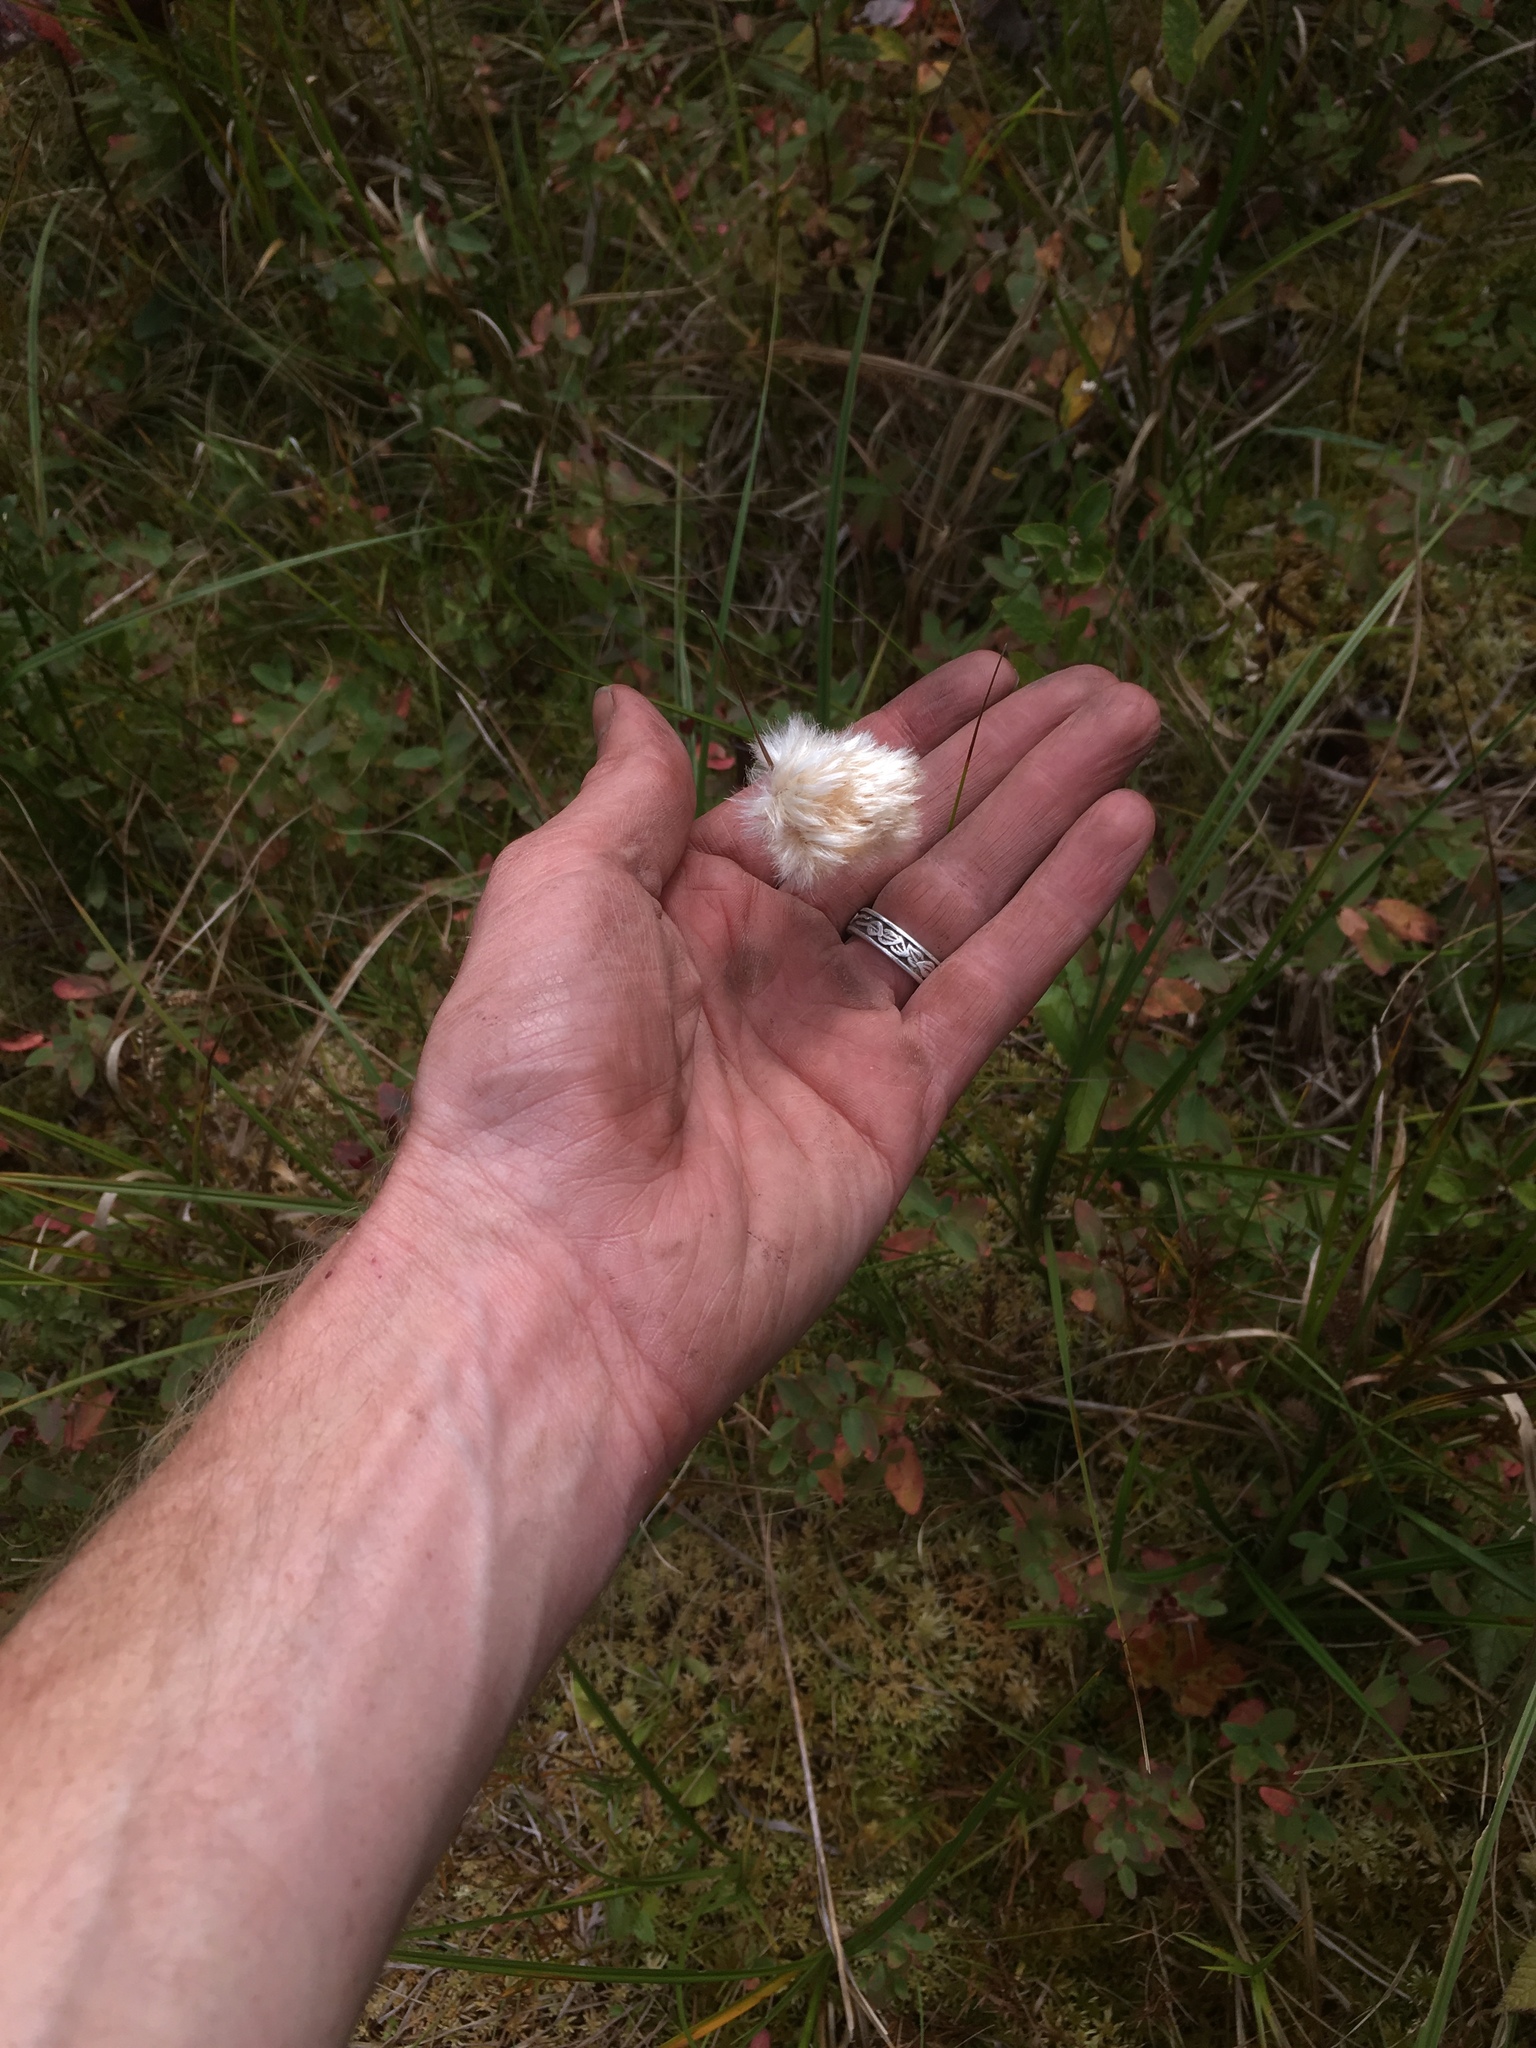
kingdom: Plantae
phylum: Tracheophyta
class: Liliopsida
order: Poales
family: Cyperaceae
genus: Eriophorum
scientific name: Eriophorum virginicum
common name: Tawny cottongrass
